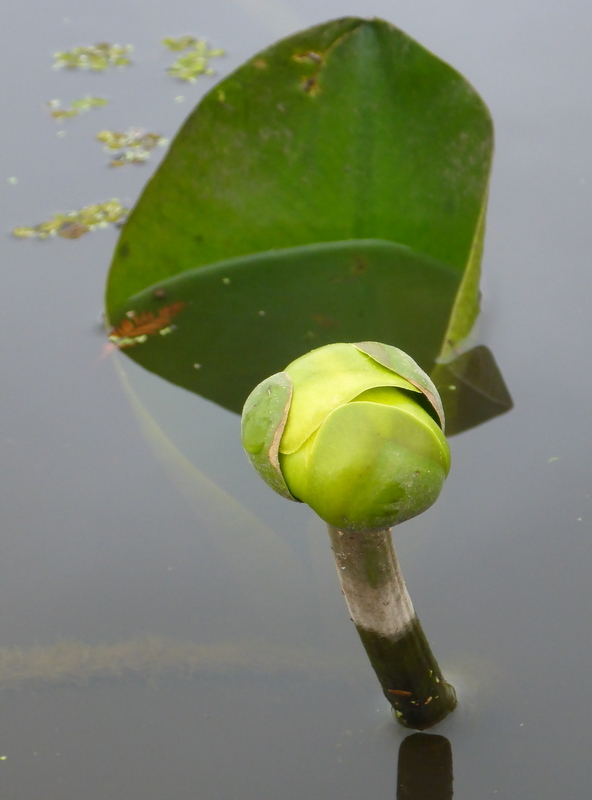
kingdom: Plantae
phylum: Tracheophyta
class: Magnoliopsida
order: Nymphaeales
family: Nymphaeaceae
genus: Nuphar
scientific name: Nuphar advena
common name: Spatter-dock
